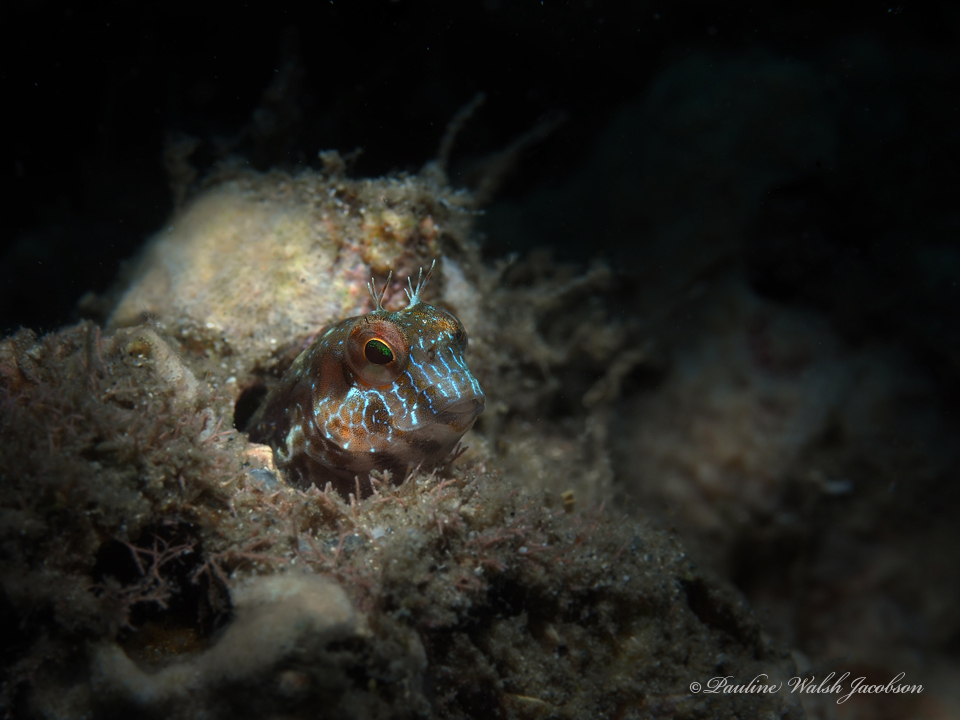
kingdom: Animalia
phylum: Chordata
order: Perciformes
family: Blenniidae
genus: Parablennius
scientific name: Parablennius marmoreus
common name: Seaweed blenny
